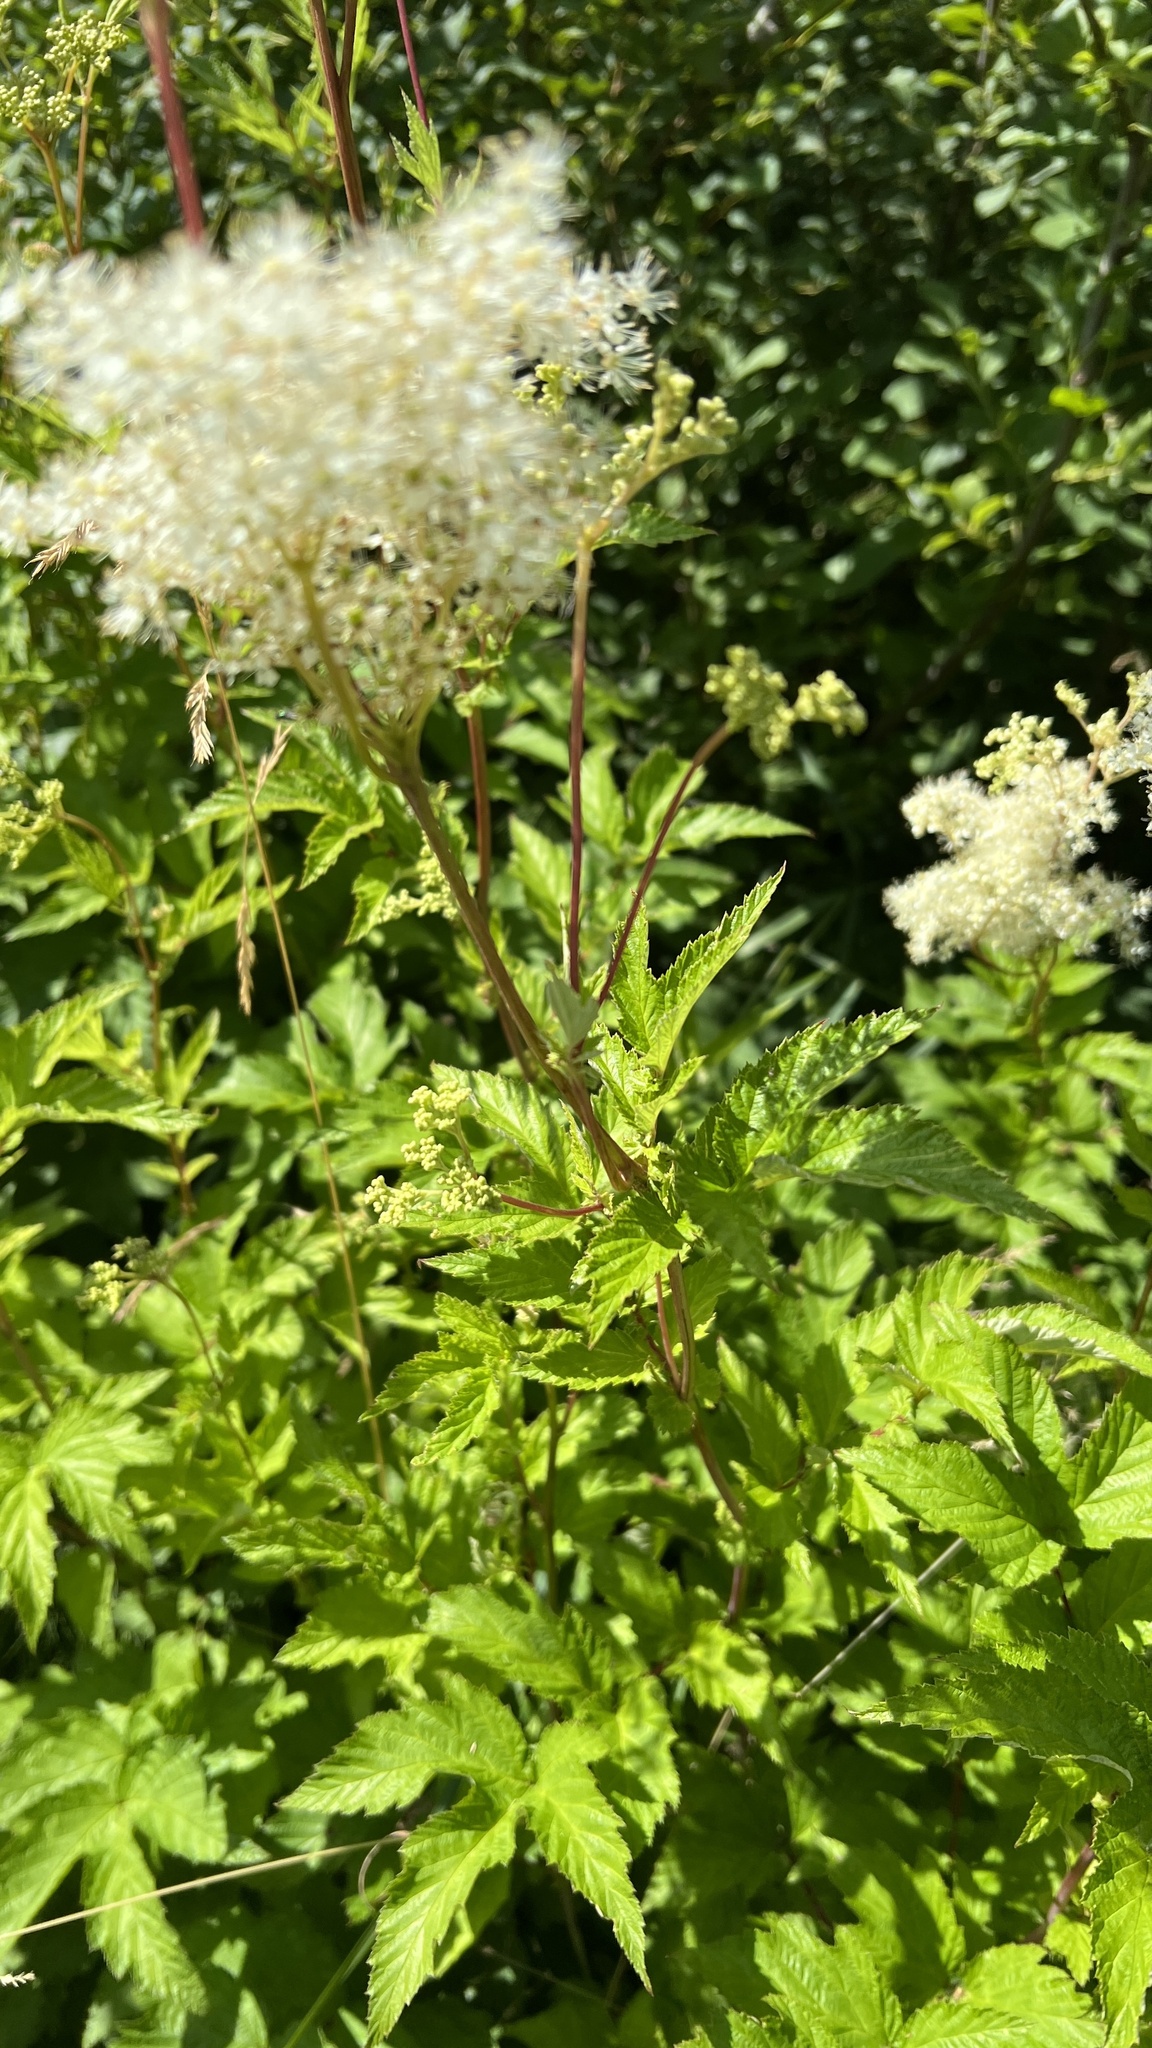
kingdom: Plantae
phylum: Tracheophyta
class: Magnoliopsida
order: Rosales
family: Rosaceae
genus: Filipendula
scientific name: Filipendula ulmaria
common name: Meadowsweet
